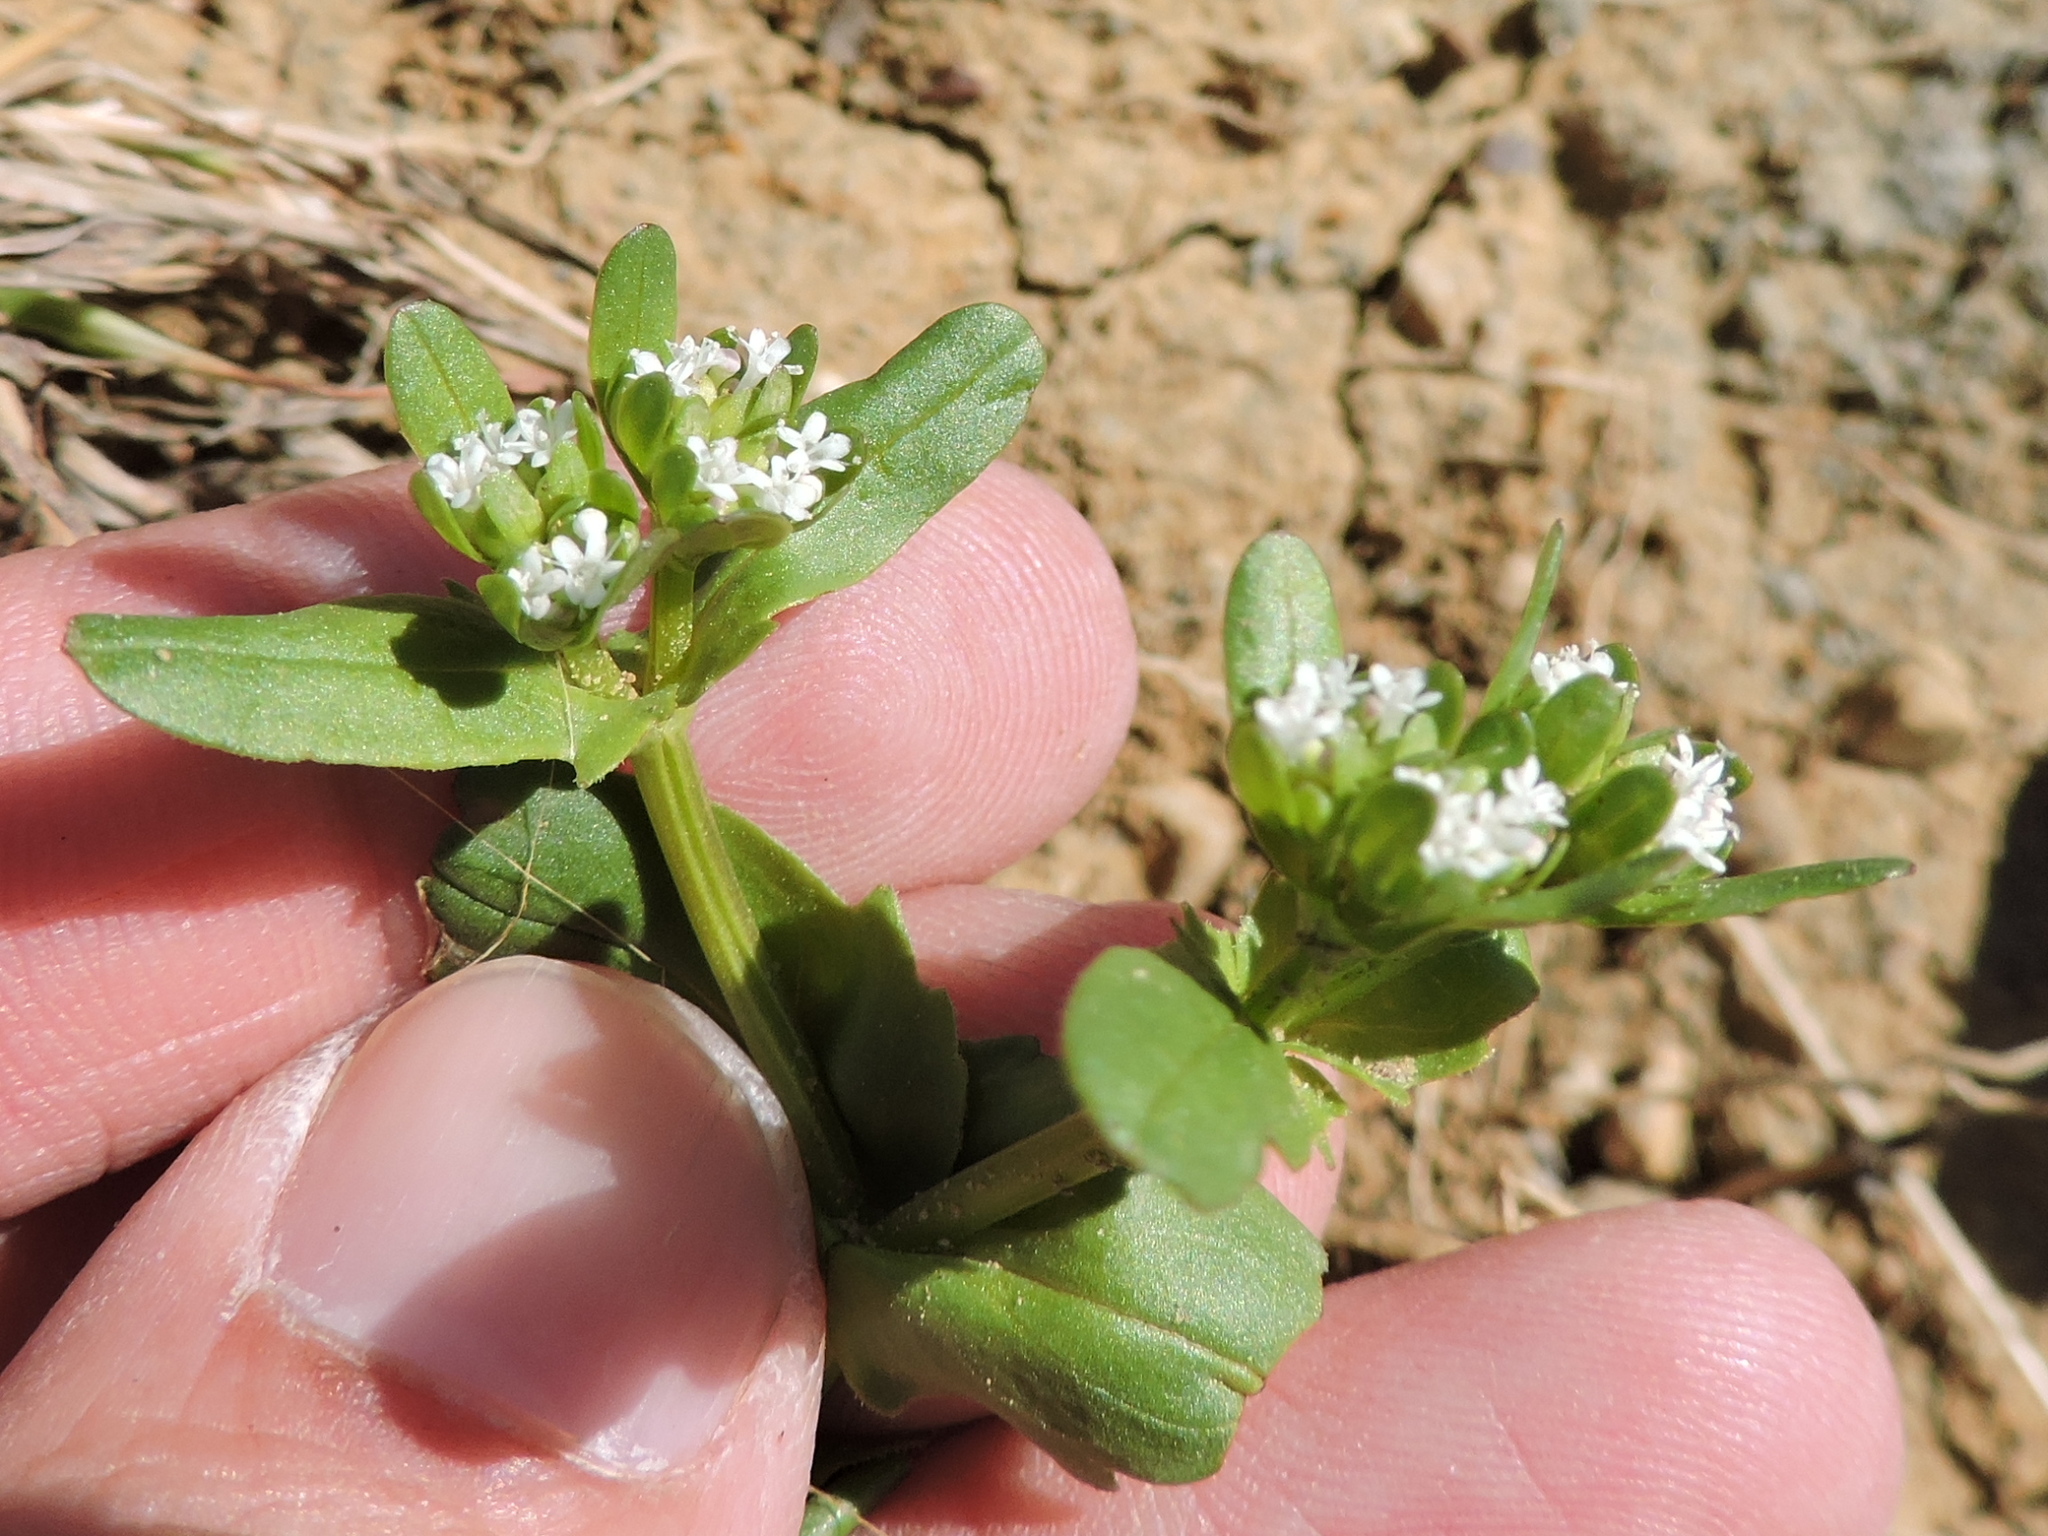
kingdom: Plantae
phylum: Tracheophyta
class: Magnoliopsida
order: Dipsacales
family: Caprifoliaceae
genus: Valerianella
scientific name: Valerianella radiata
